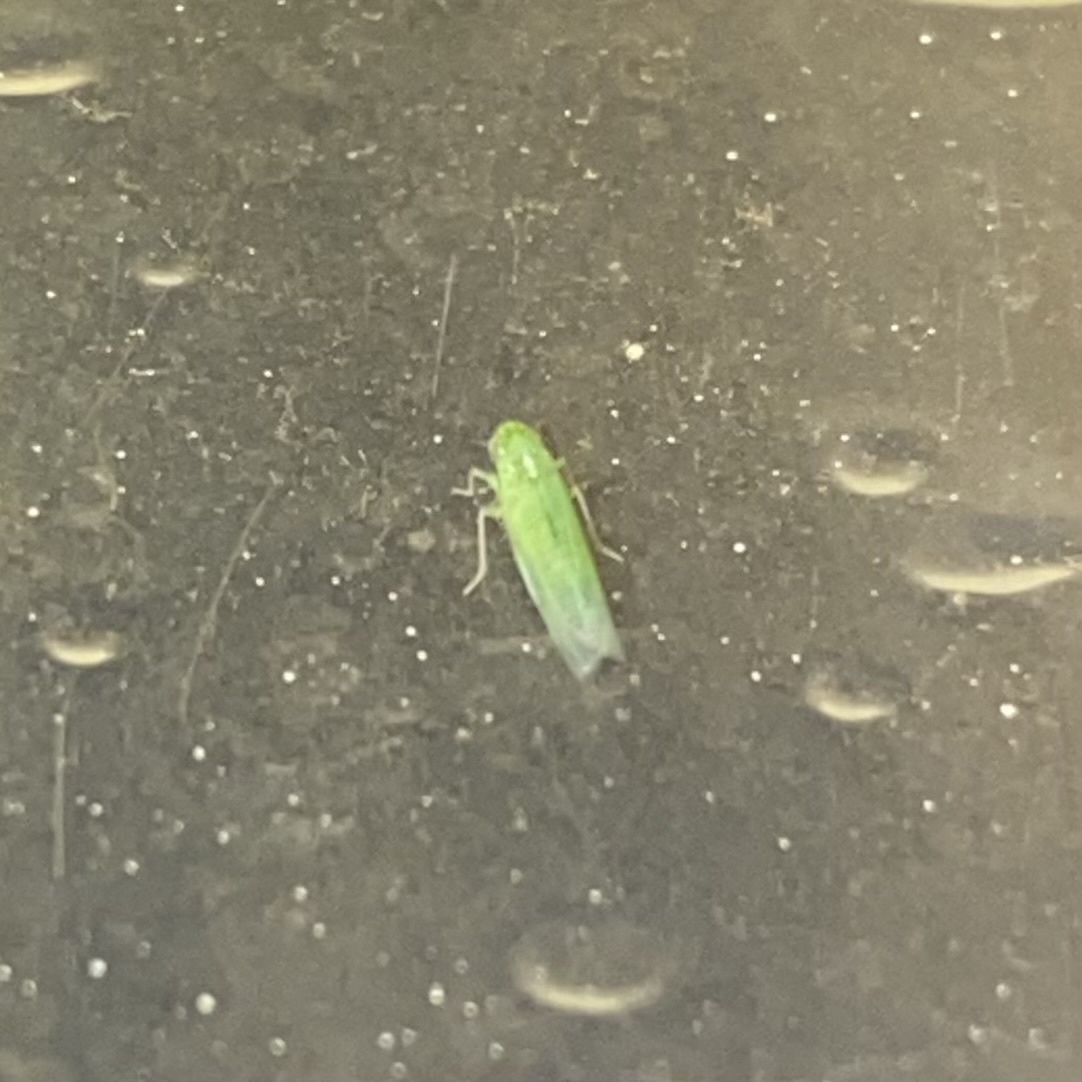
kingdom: Animalia
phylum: Arthropoda
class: Insecta
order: Hemiptera
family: Cicadellidae
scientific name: Cicadellidae
